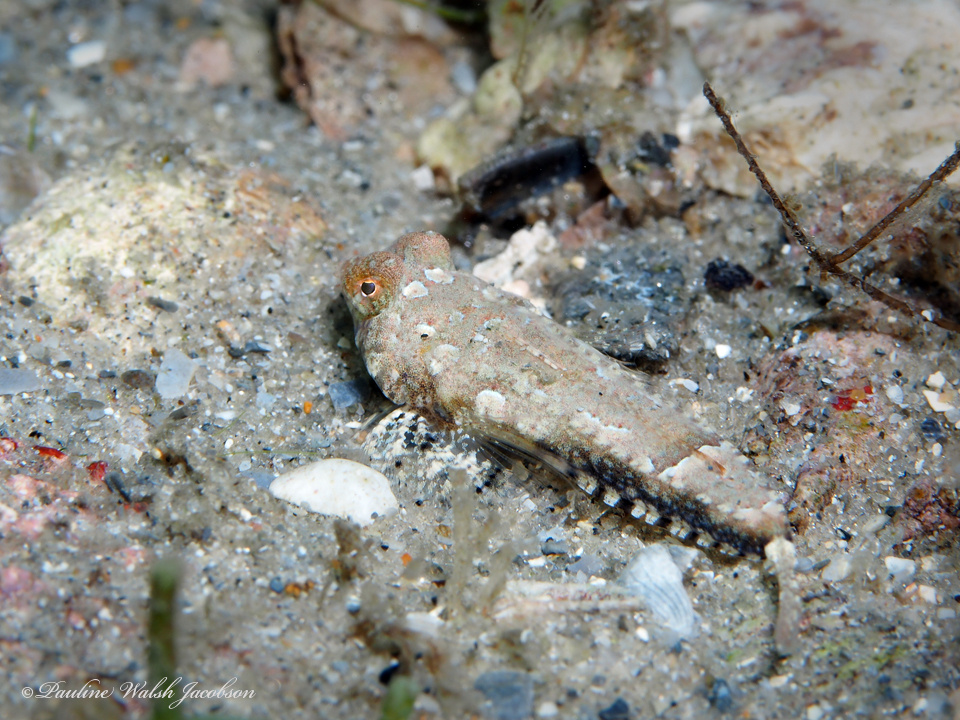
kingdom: Animalia
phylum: Chordata
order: Perciformes
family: Callionymidae
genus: Diplogrammus
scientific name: Diplogrammus pauciradiatus
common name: Spotted dragonet
